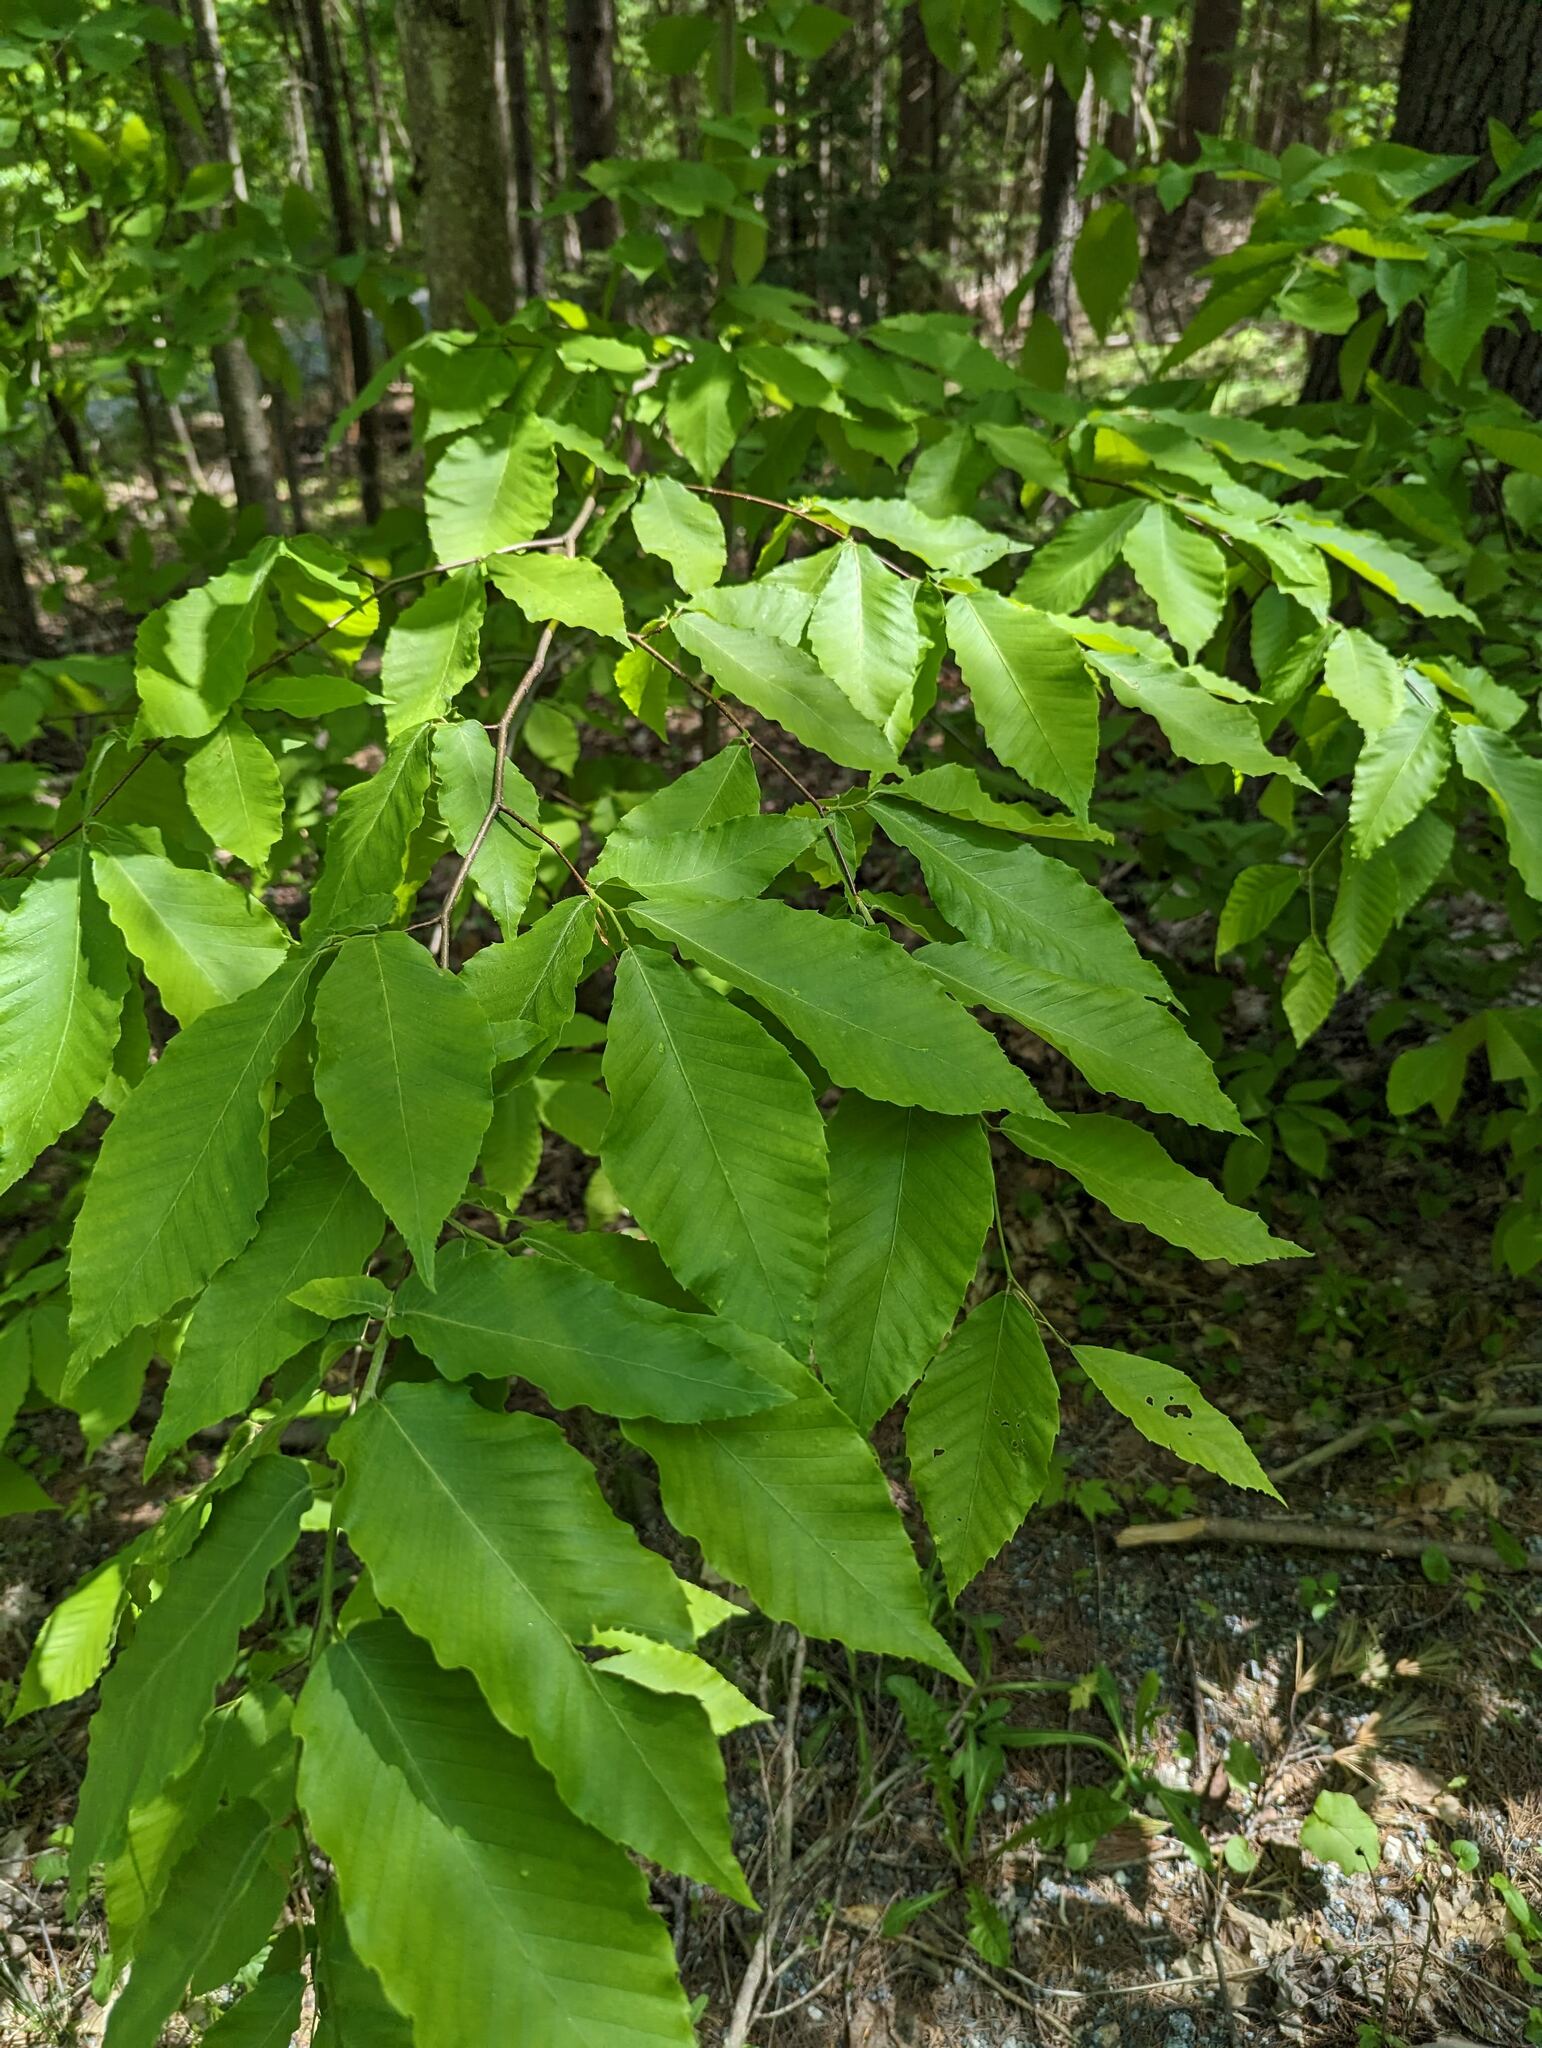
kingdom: Plantae
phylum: Tracheophyta
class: Magnoliopsida
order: Fagales
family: Fagaceae
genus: Fagus
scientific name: Fagus grandifolia
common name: American beech
